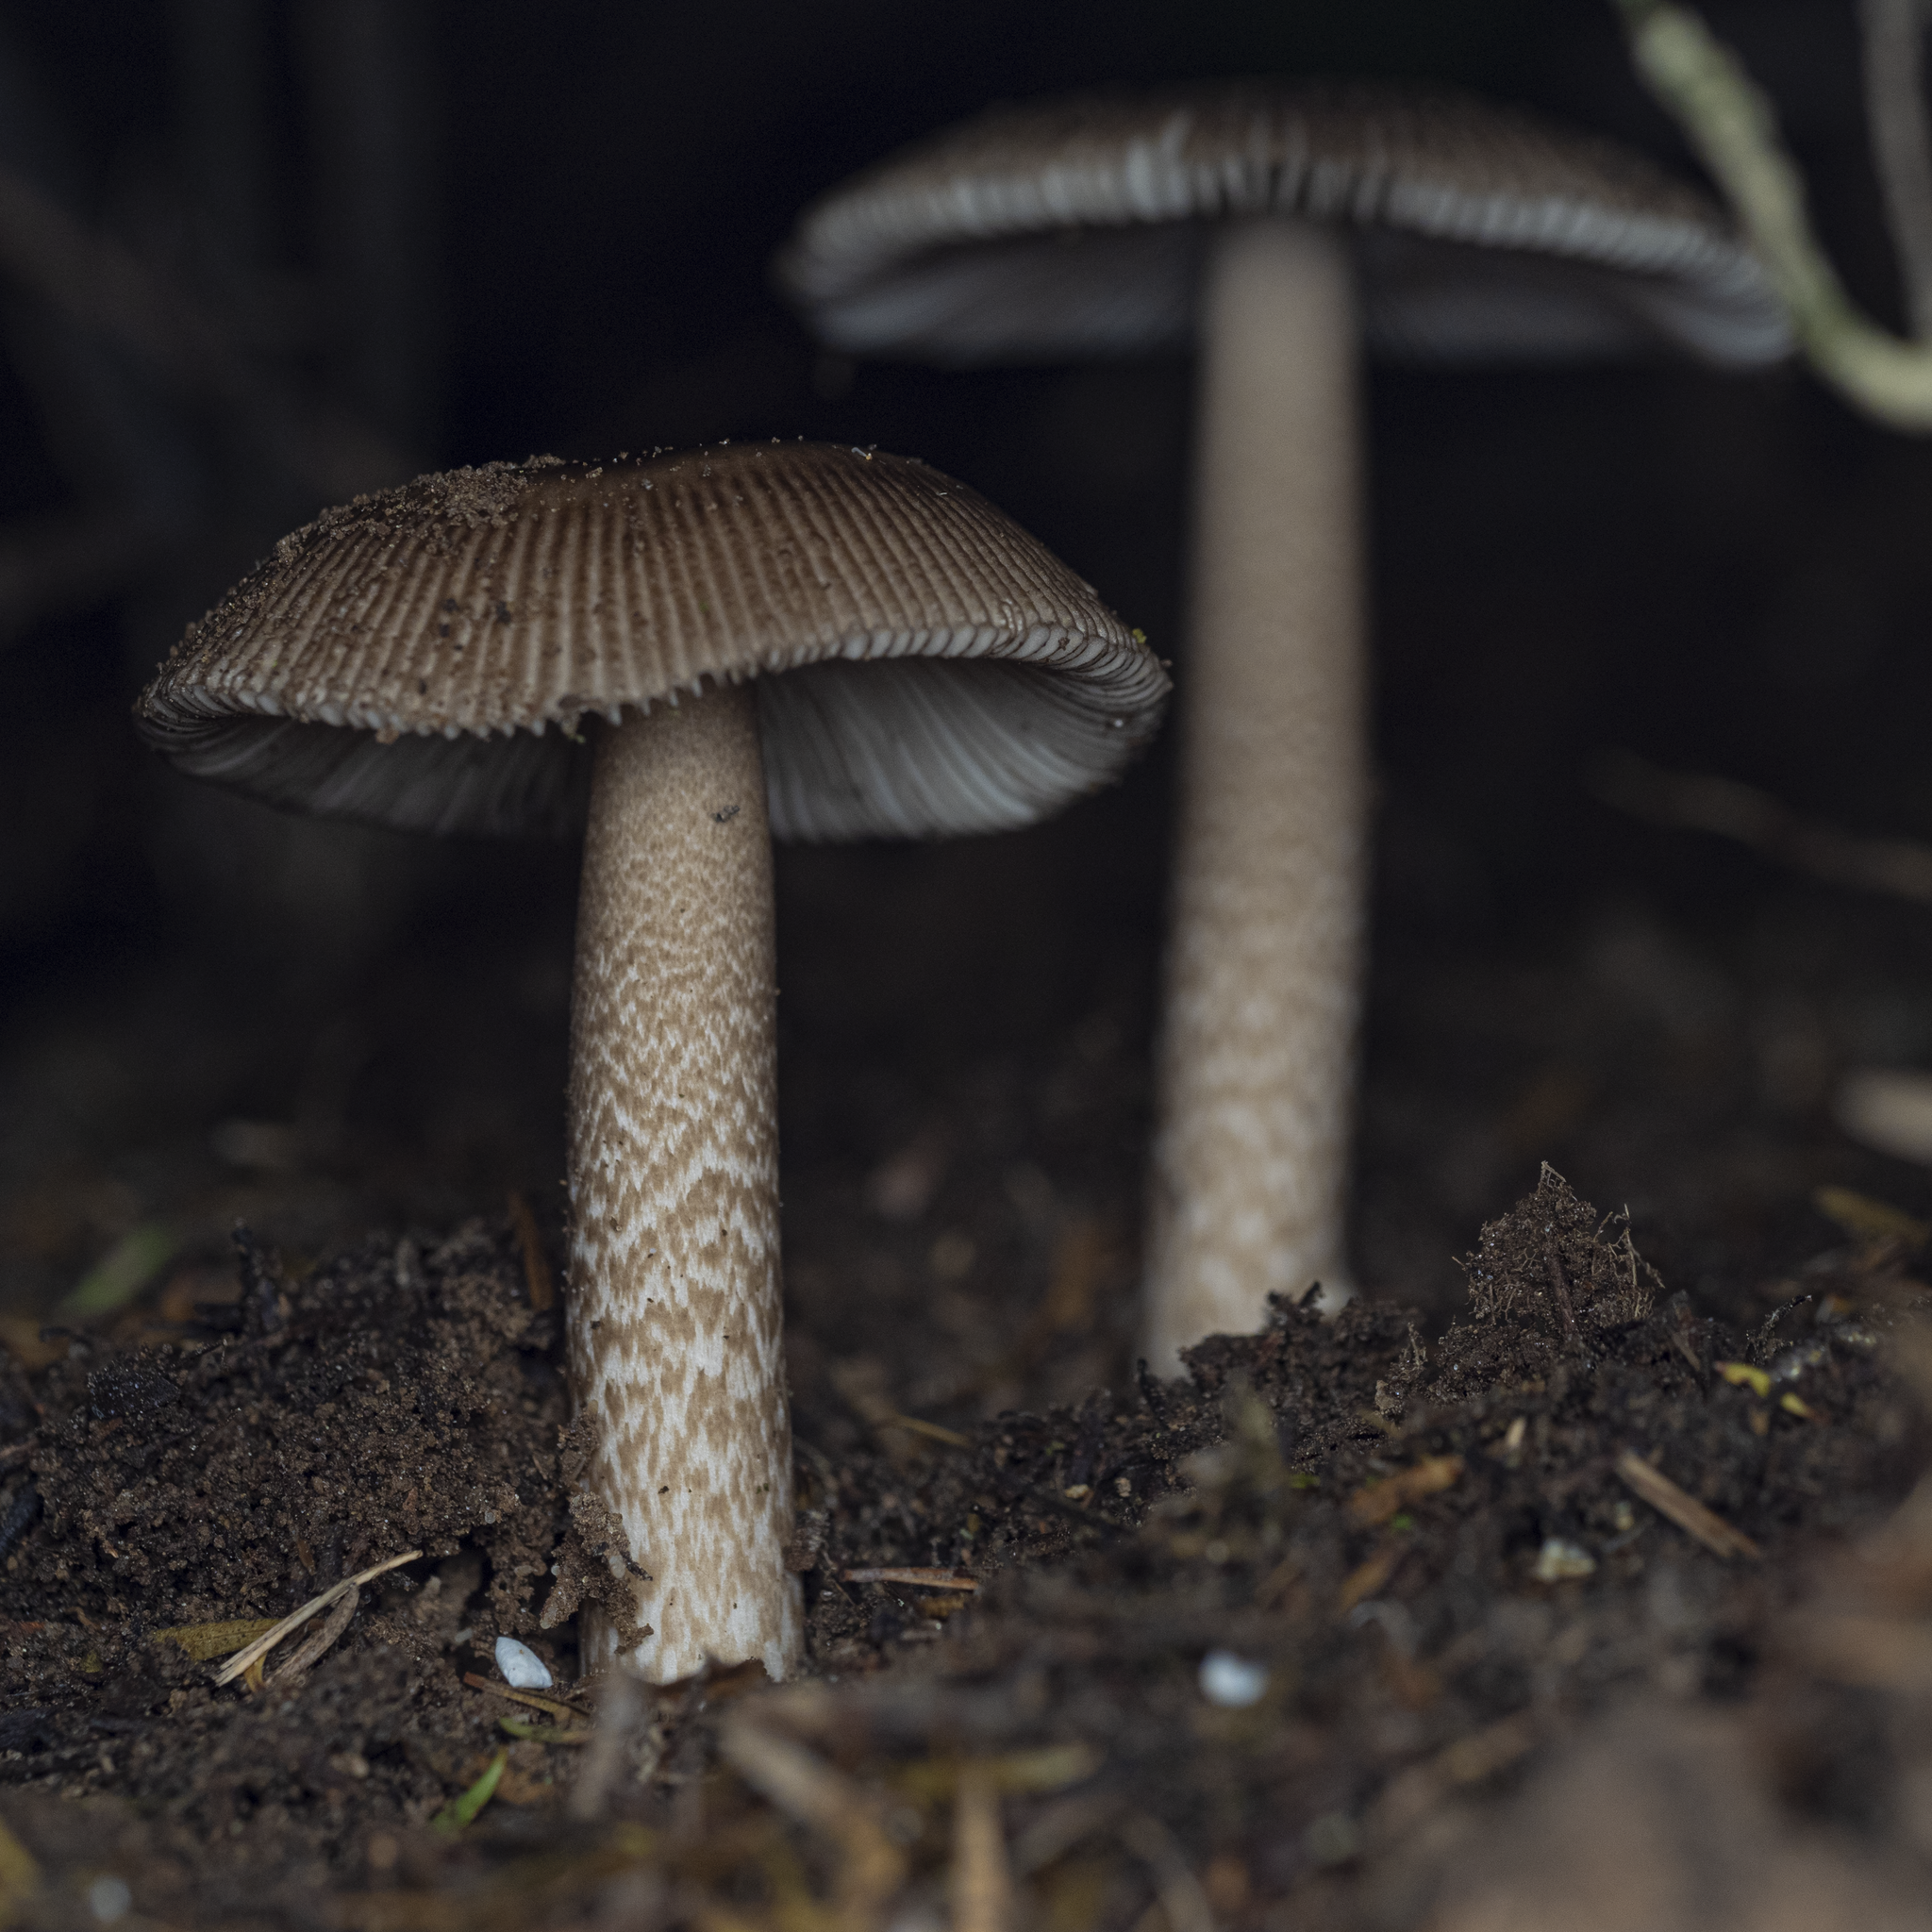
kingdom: Fungi
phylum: Basidiomycota
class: Agaricomycetes
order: Agaricales
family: Amanitaceae
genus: Amanita
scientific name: Amanita pekeoides
